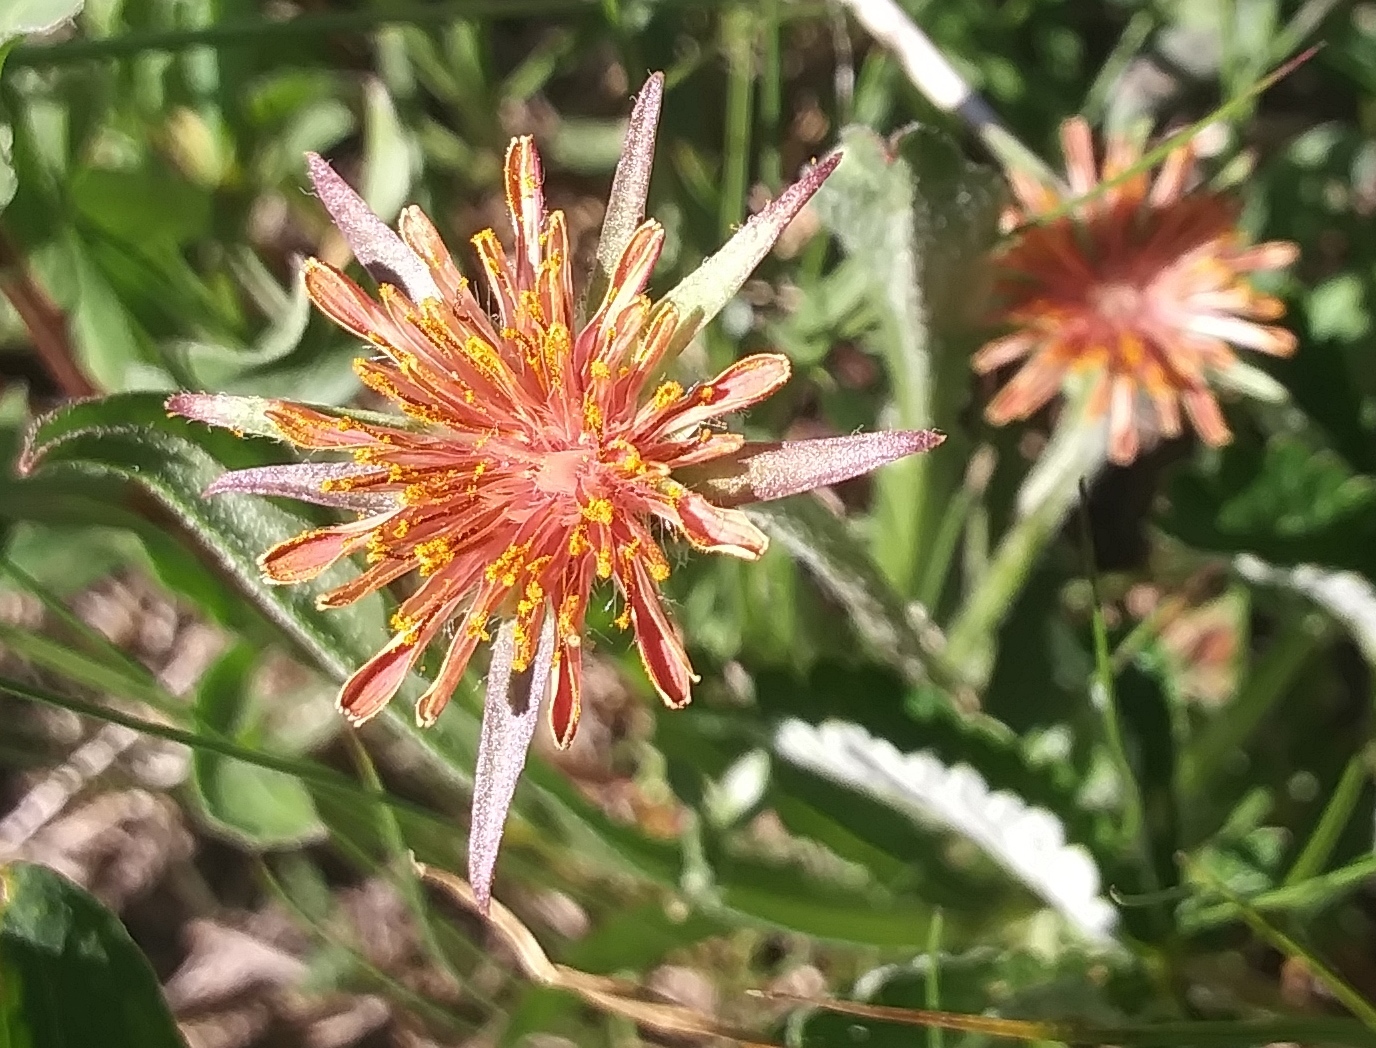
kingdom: Plantae
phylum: Tracheophyta
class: Magnoliopsida
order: Asterales
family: Asteraceae
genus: Agoseris
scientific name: Agoseris aurantiaca
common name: Mountain agoseris
